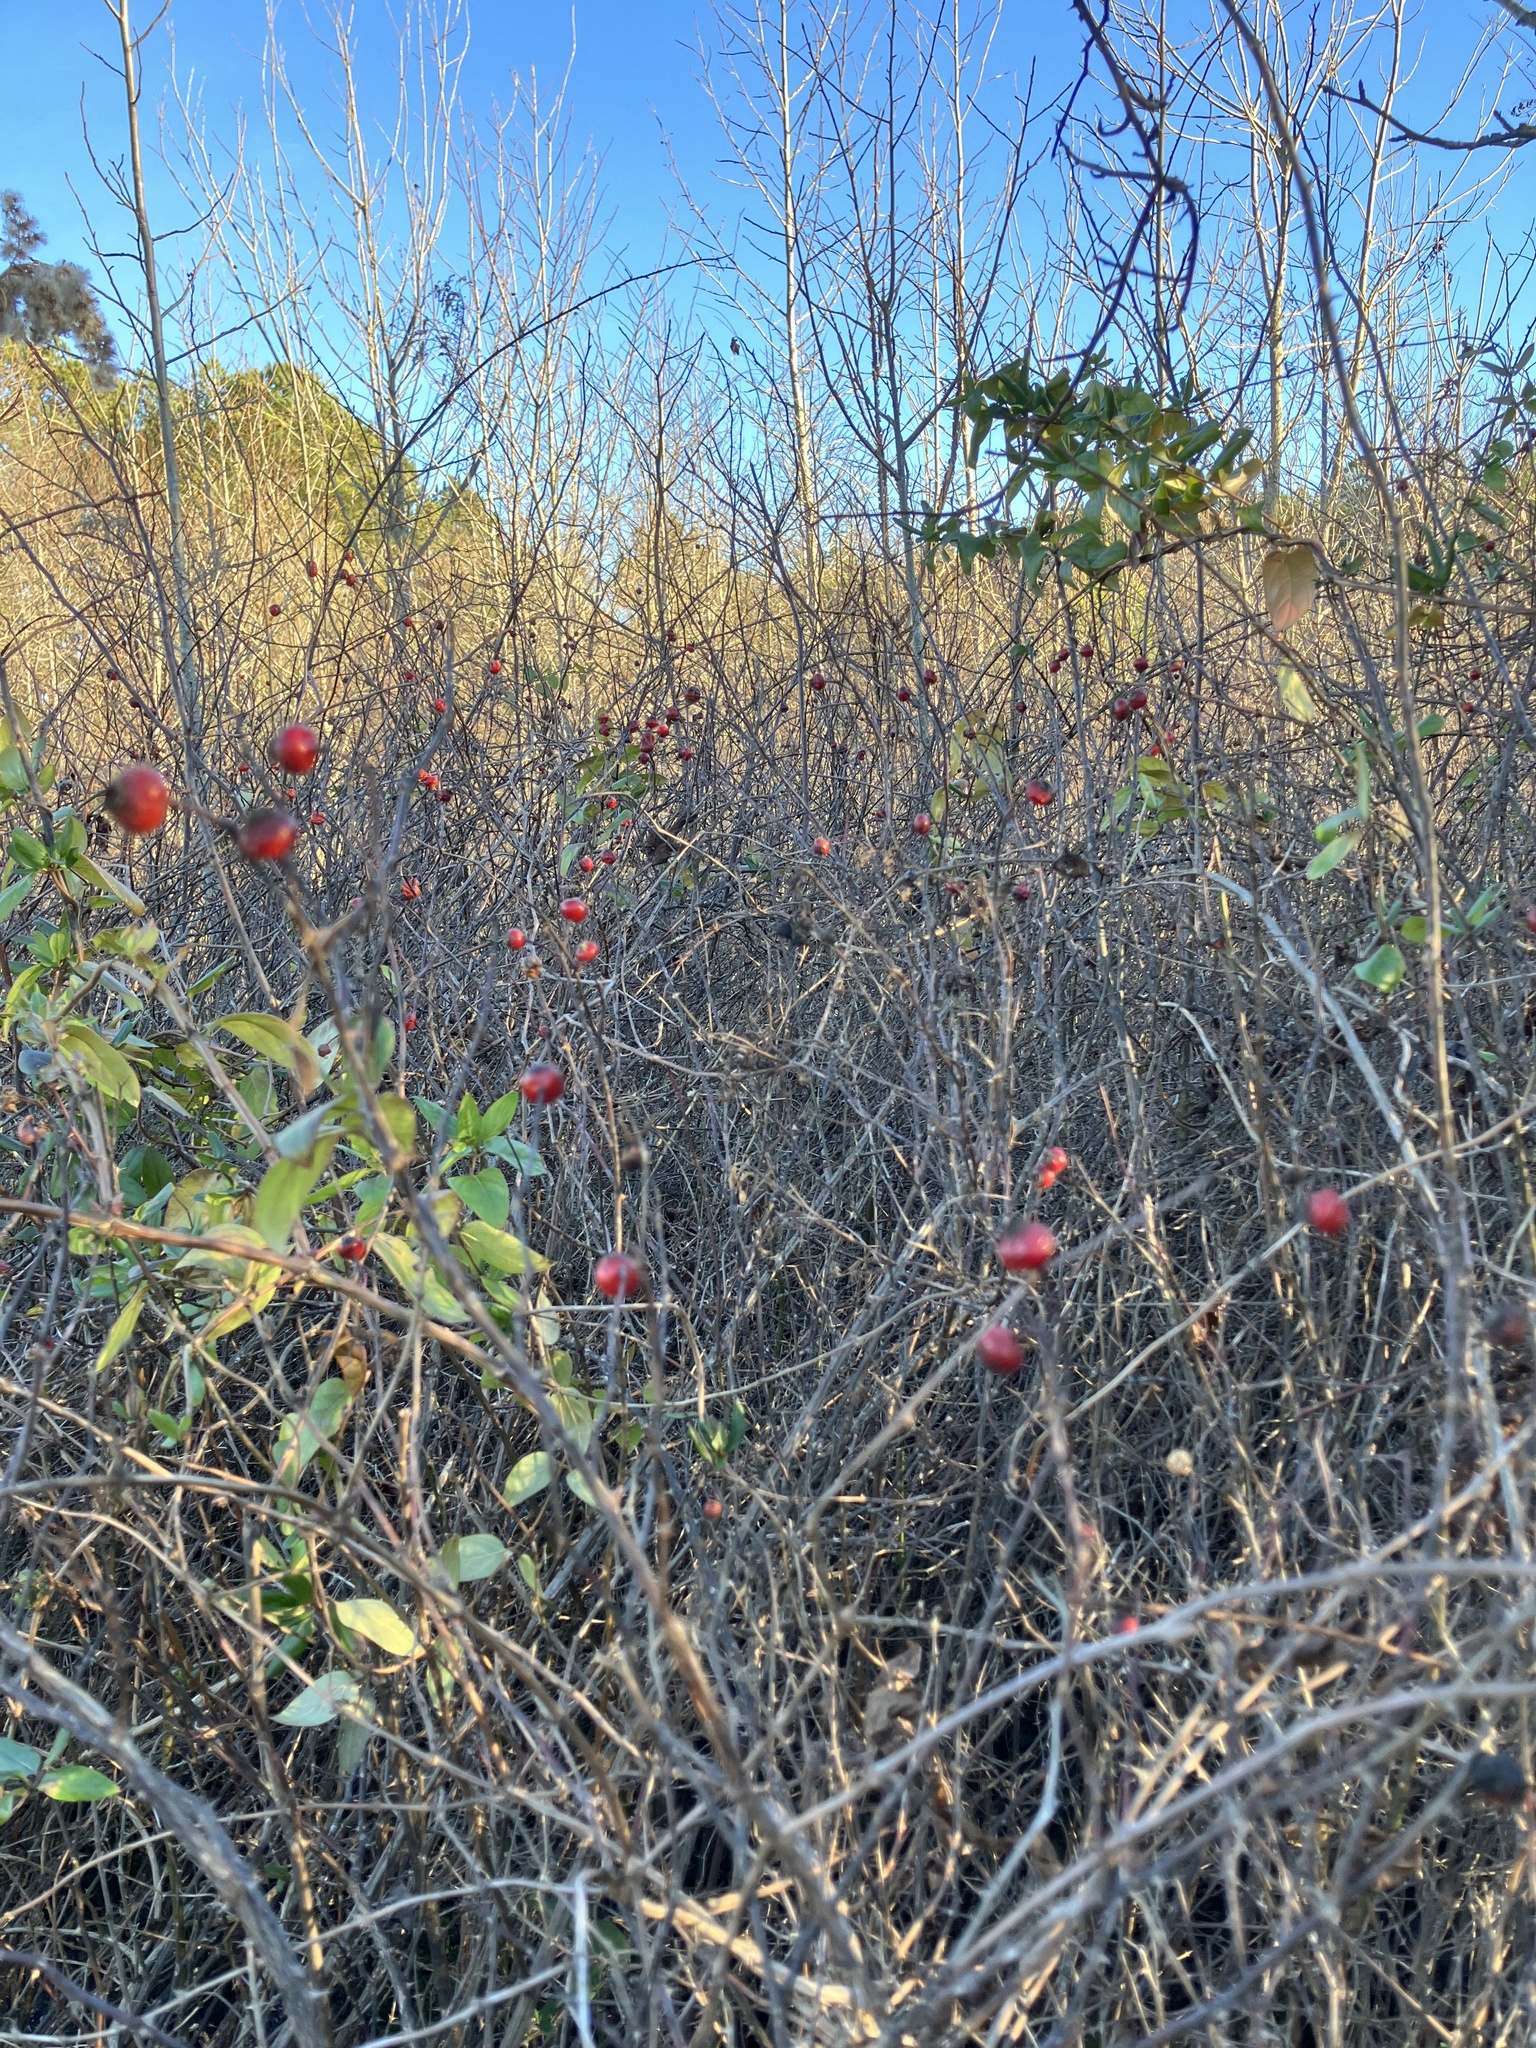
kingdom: Plantae
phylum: Tracheophyta
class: Magnoliopsida
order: Rosales
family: Rosaceae
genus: Rosa
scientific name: Rosa palustris
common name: Swamp rose
